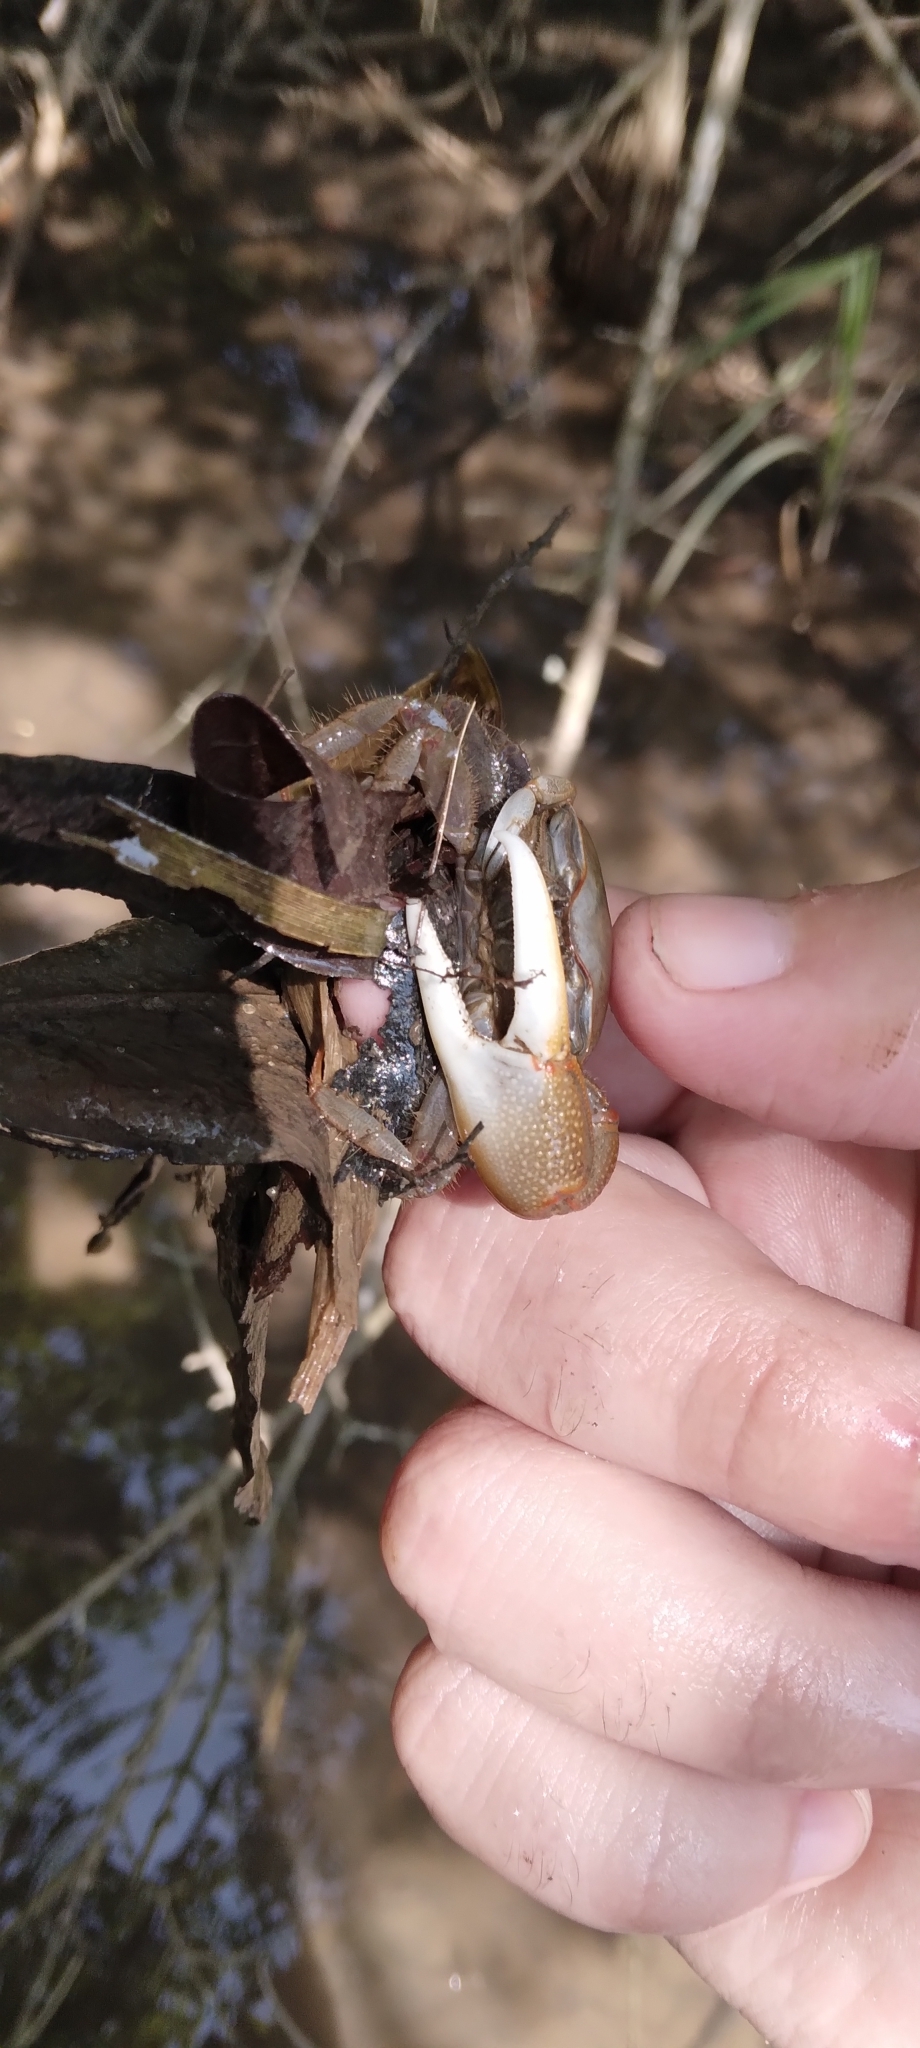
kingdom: Animalia
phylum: Arthropoda
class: Malacostraca
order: Decapoda
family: Ocypodidae
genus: Minuca
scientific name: Minuca minax
